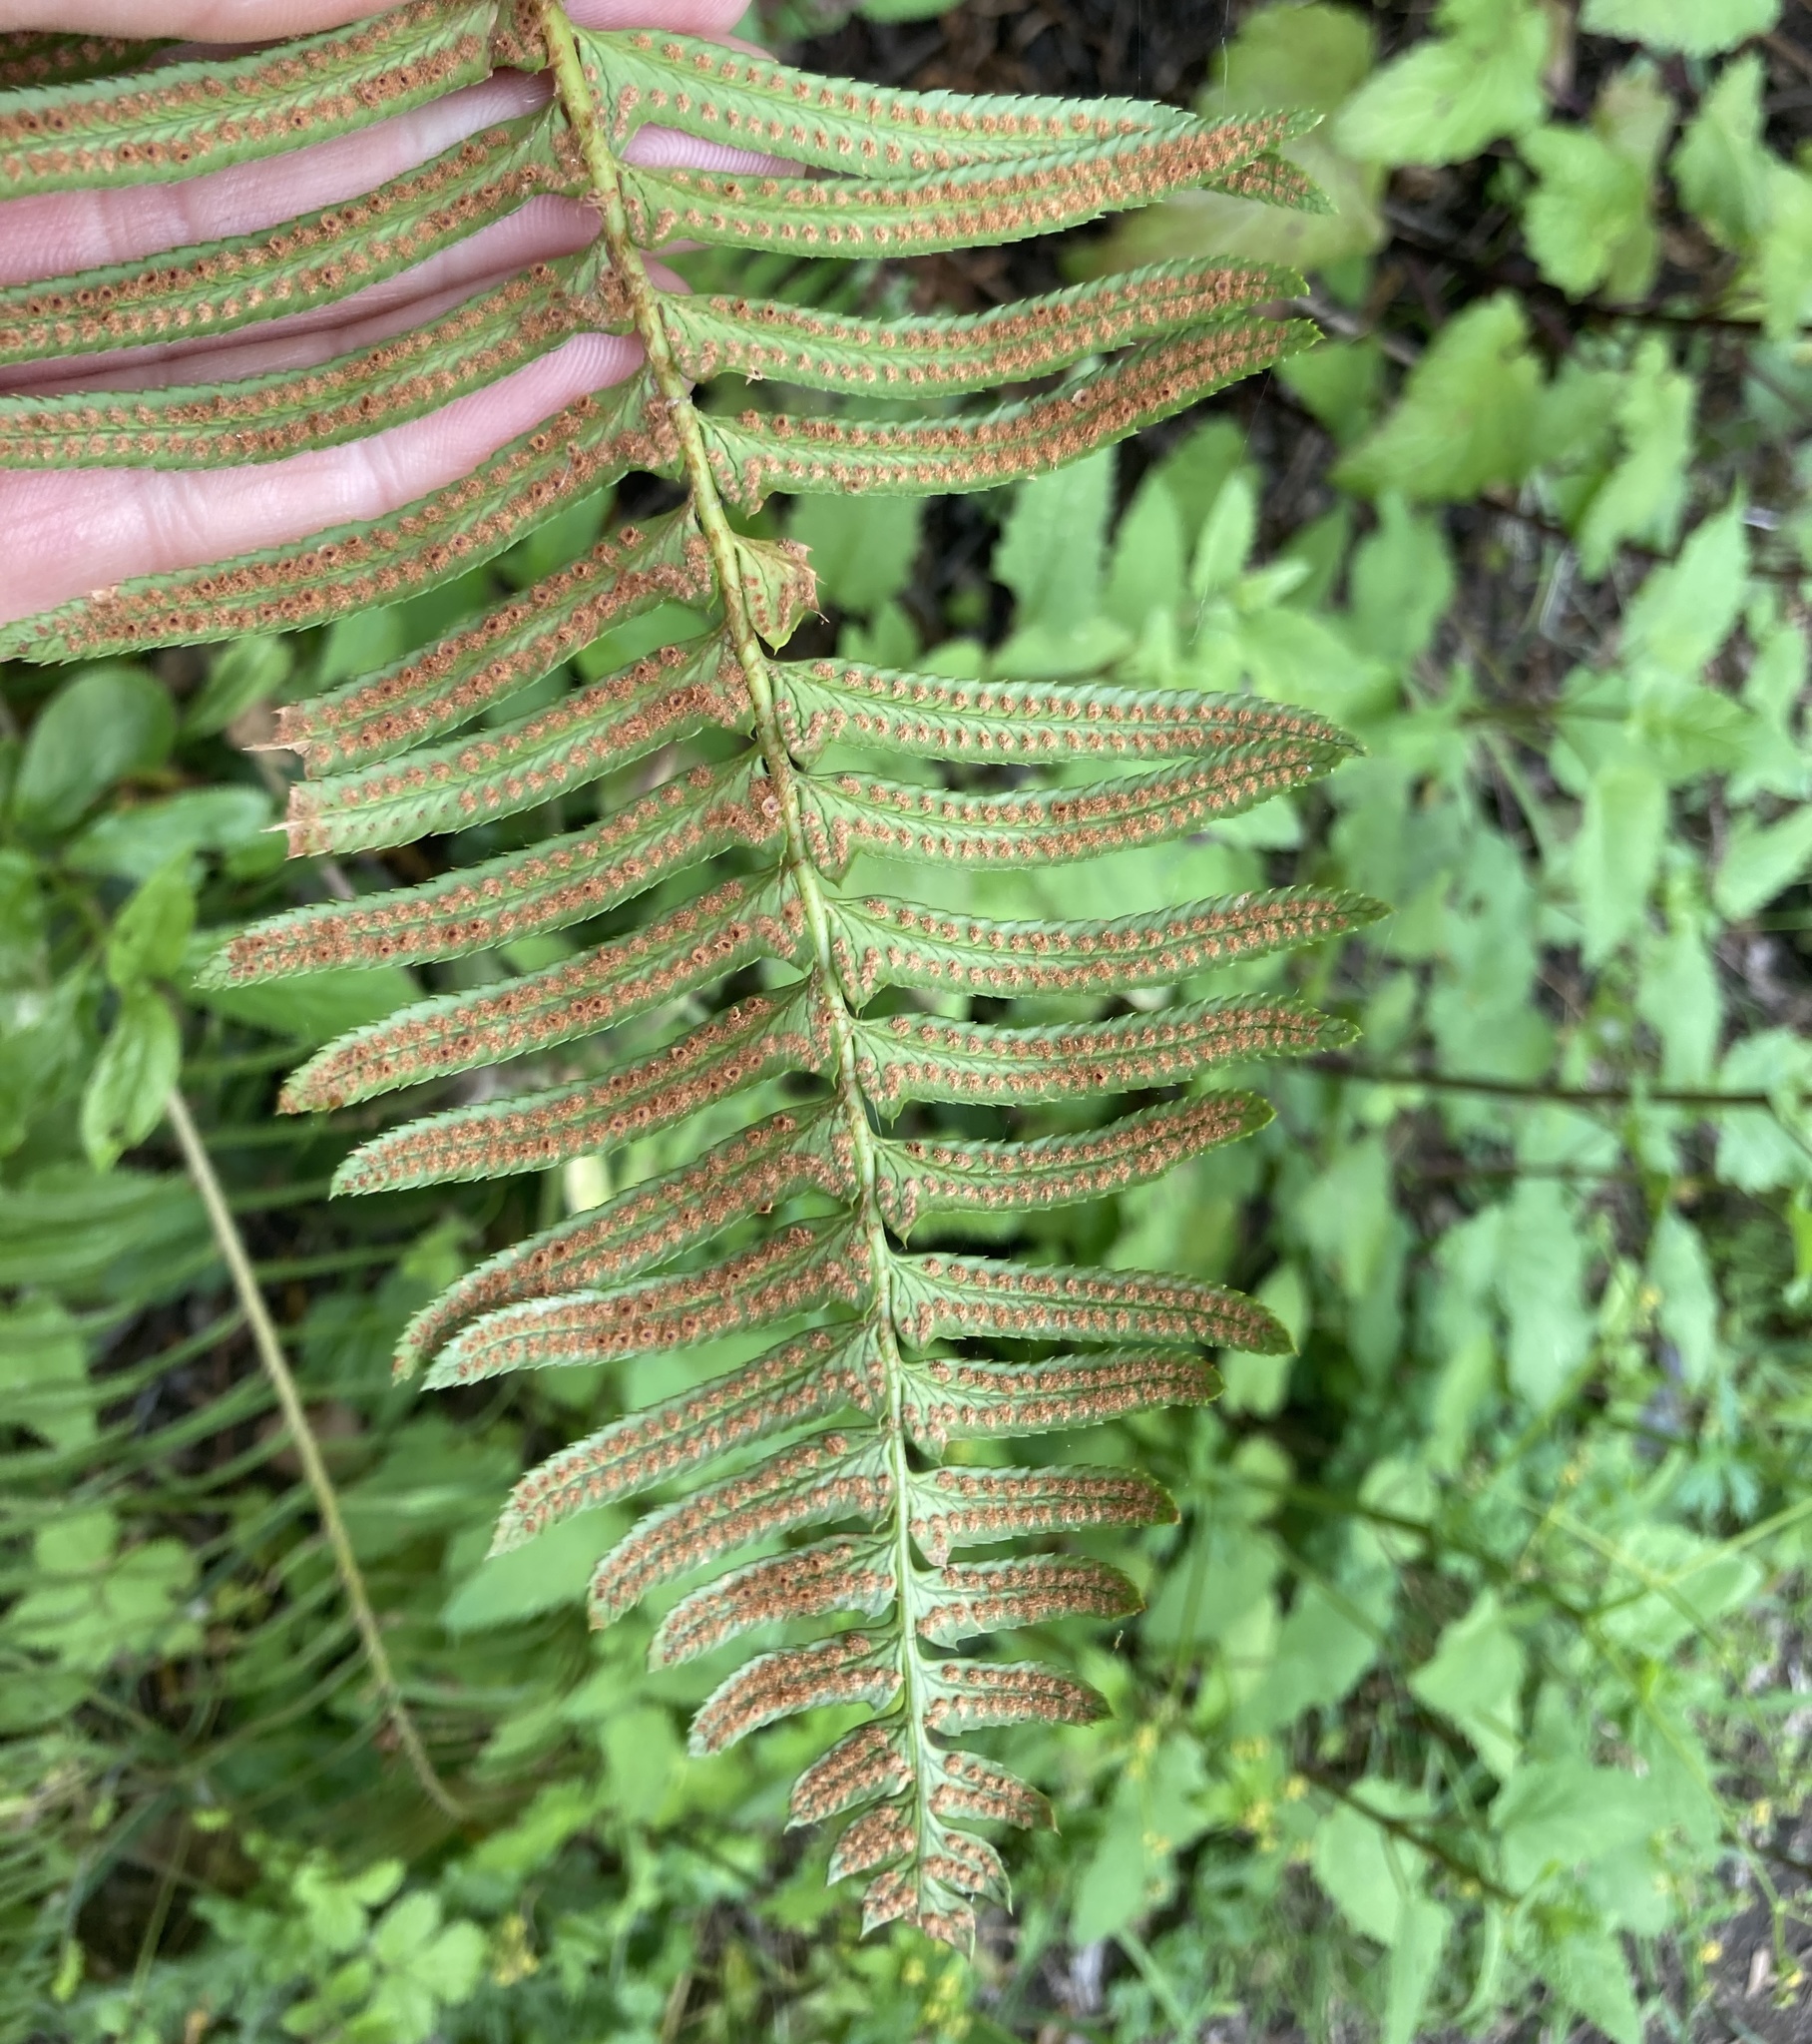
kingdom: Plantae
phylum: Tracheophyta
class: Polypodiopsida
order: Polypodiales
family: Dryopteridaceae
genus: Polystichum
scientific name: Polystichum munitum
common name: Western sword-fern
